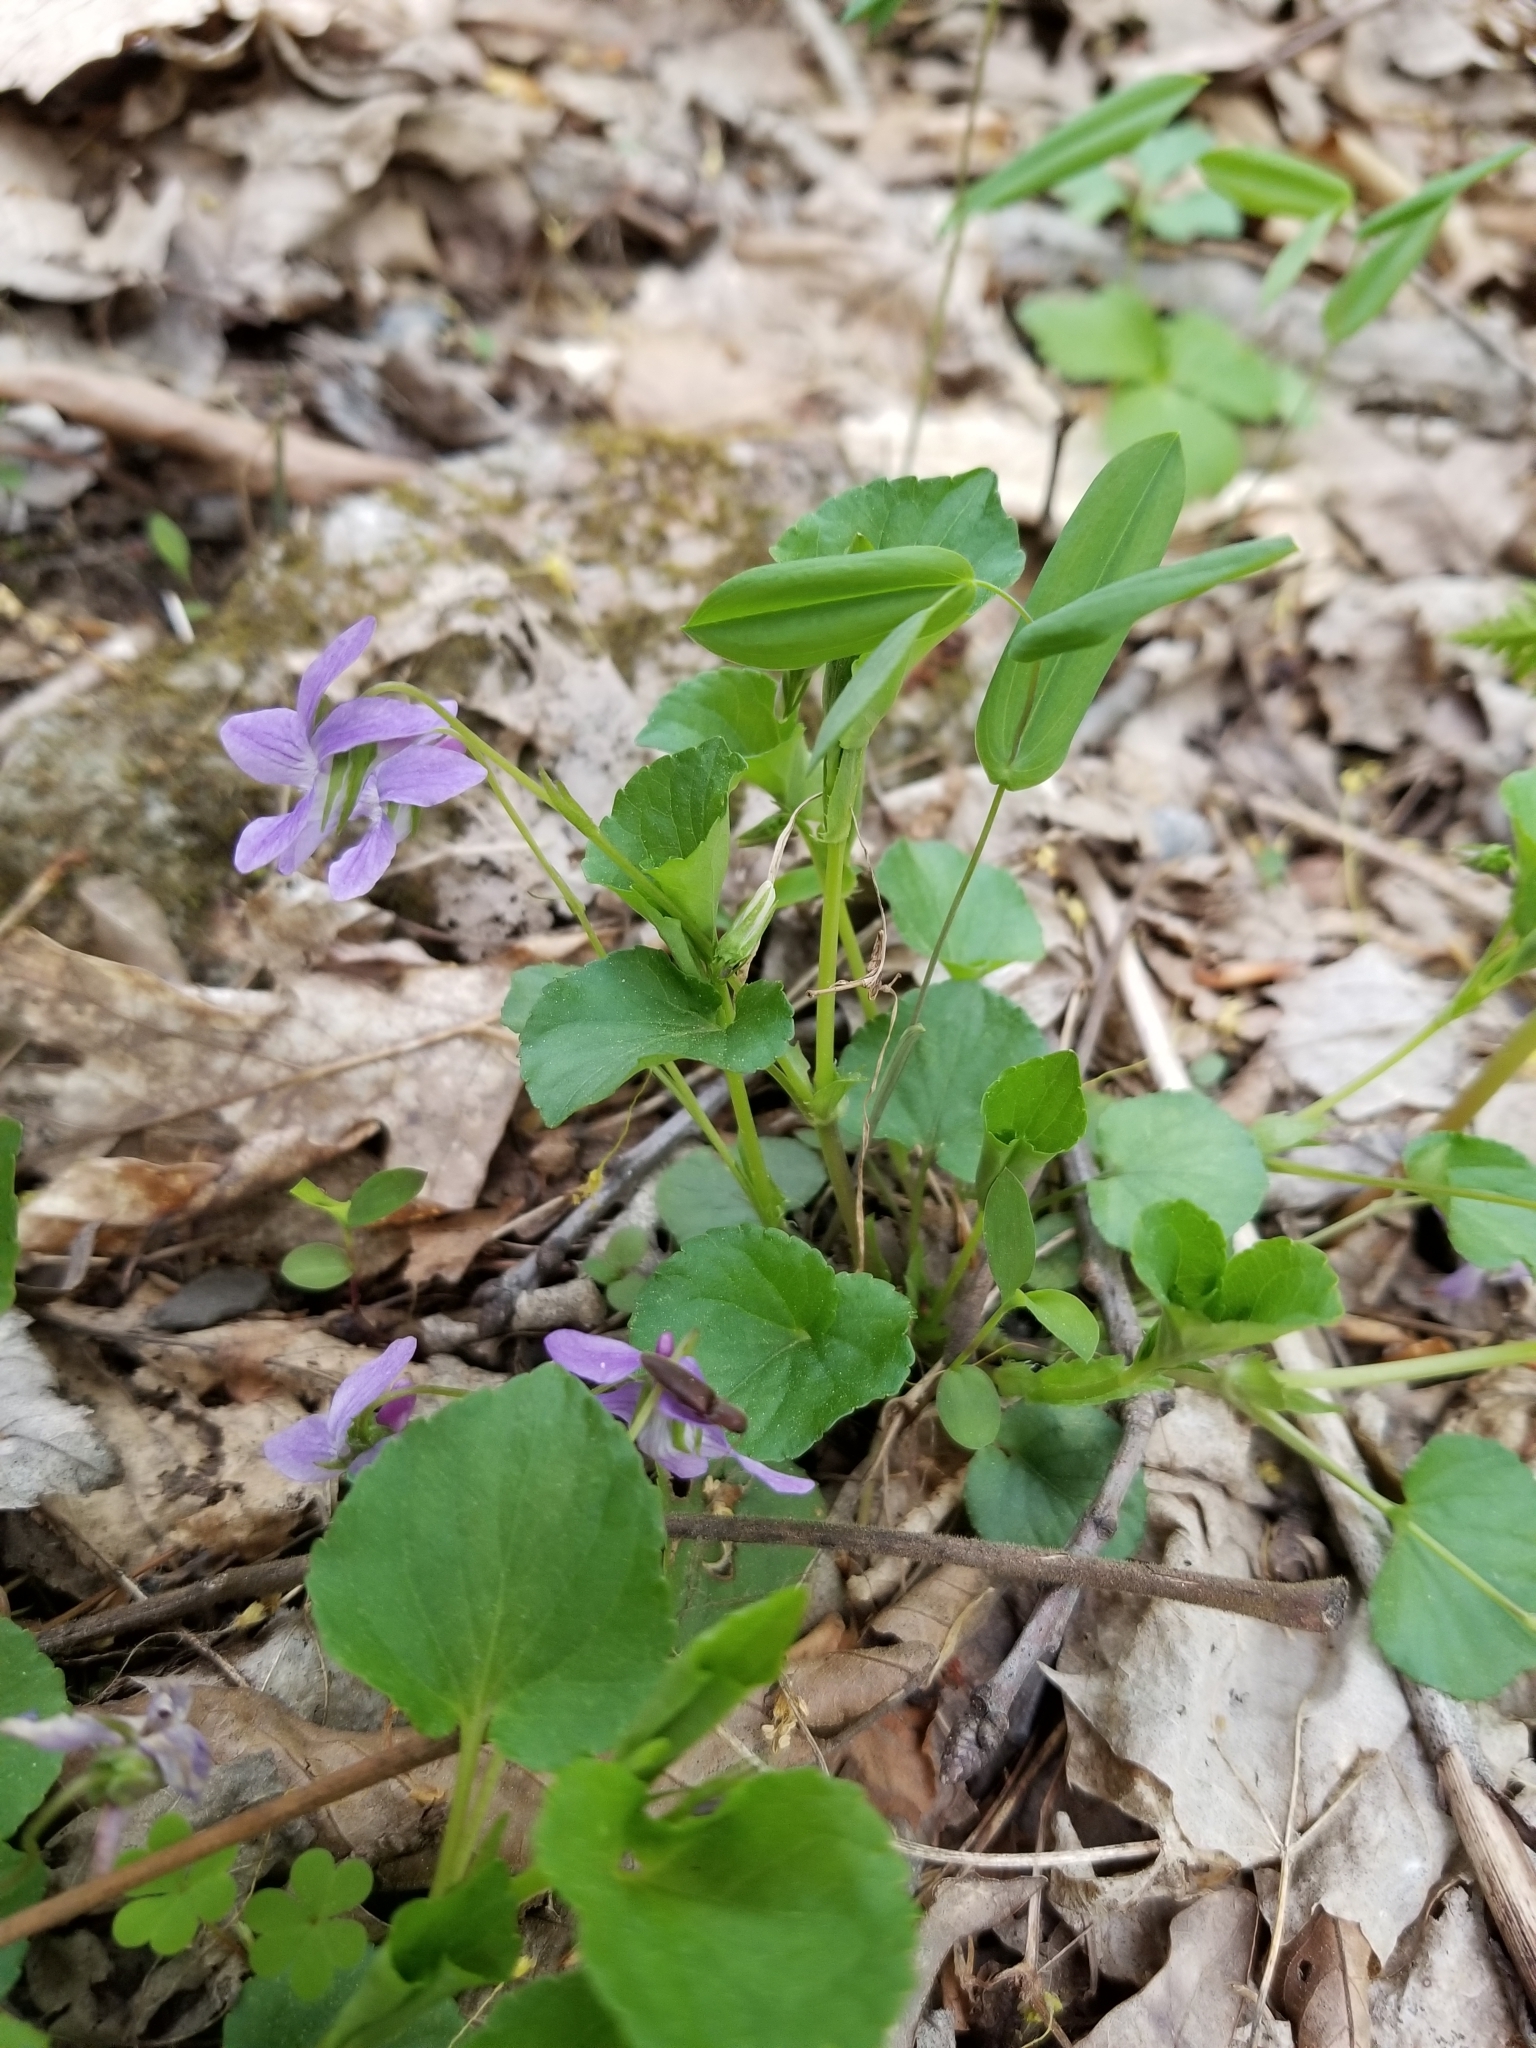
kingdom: Plantae
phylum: Tracheophyta
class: Magnoliopsida
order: Malpighiales
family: Violaceae
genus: Viola
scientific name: Viola labradorica
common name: Labrador violet
